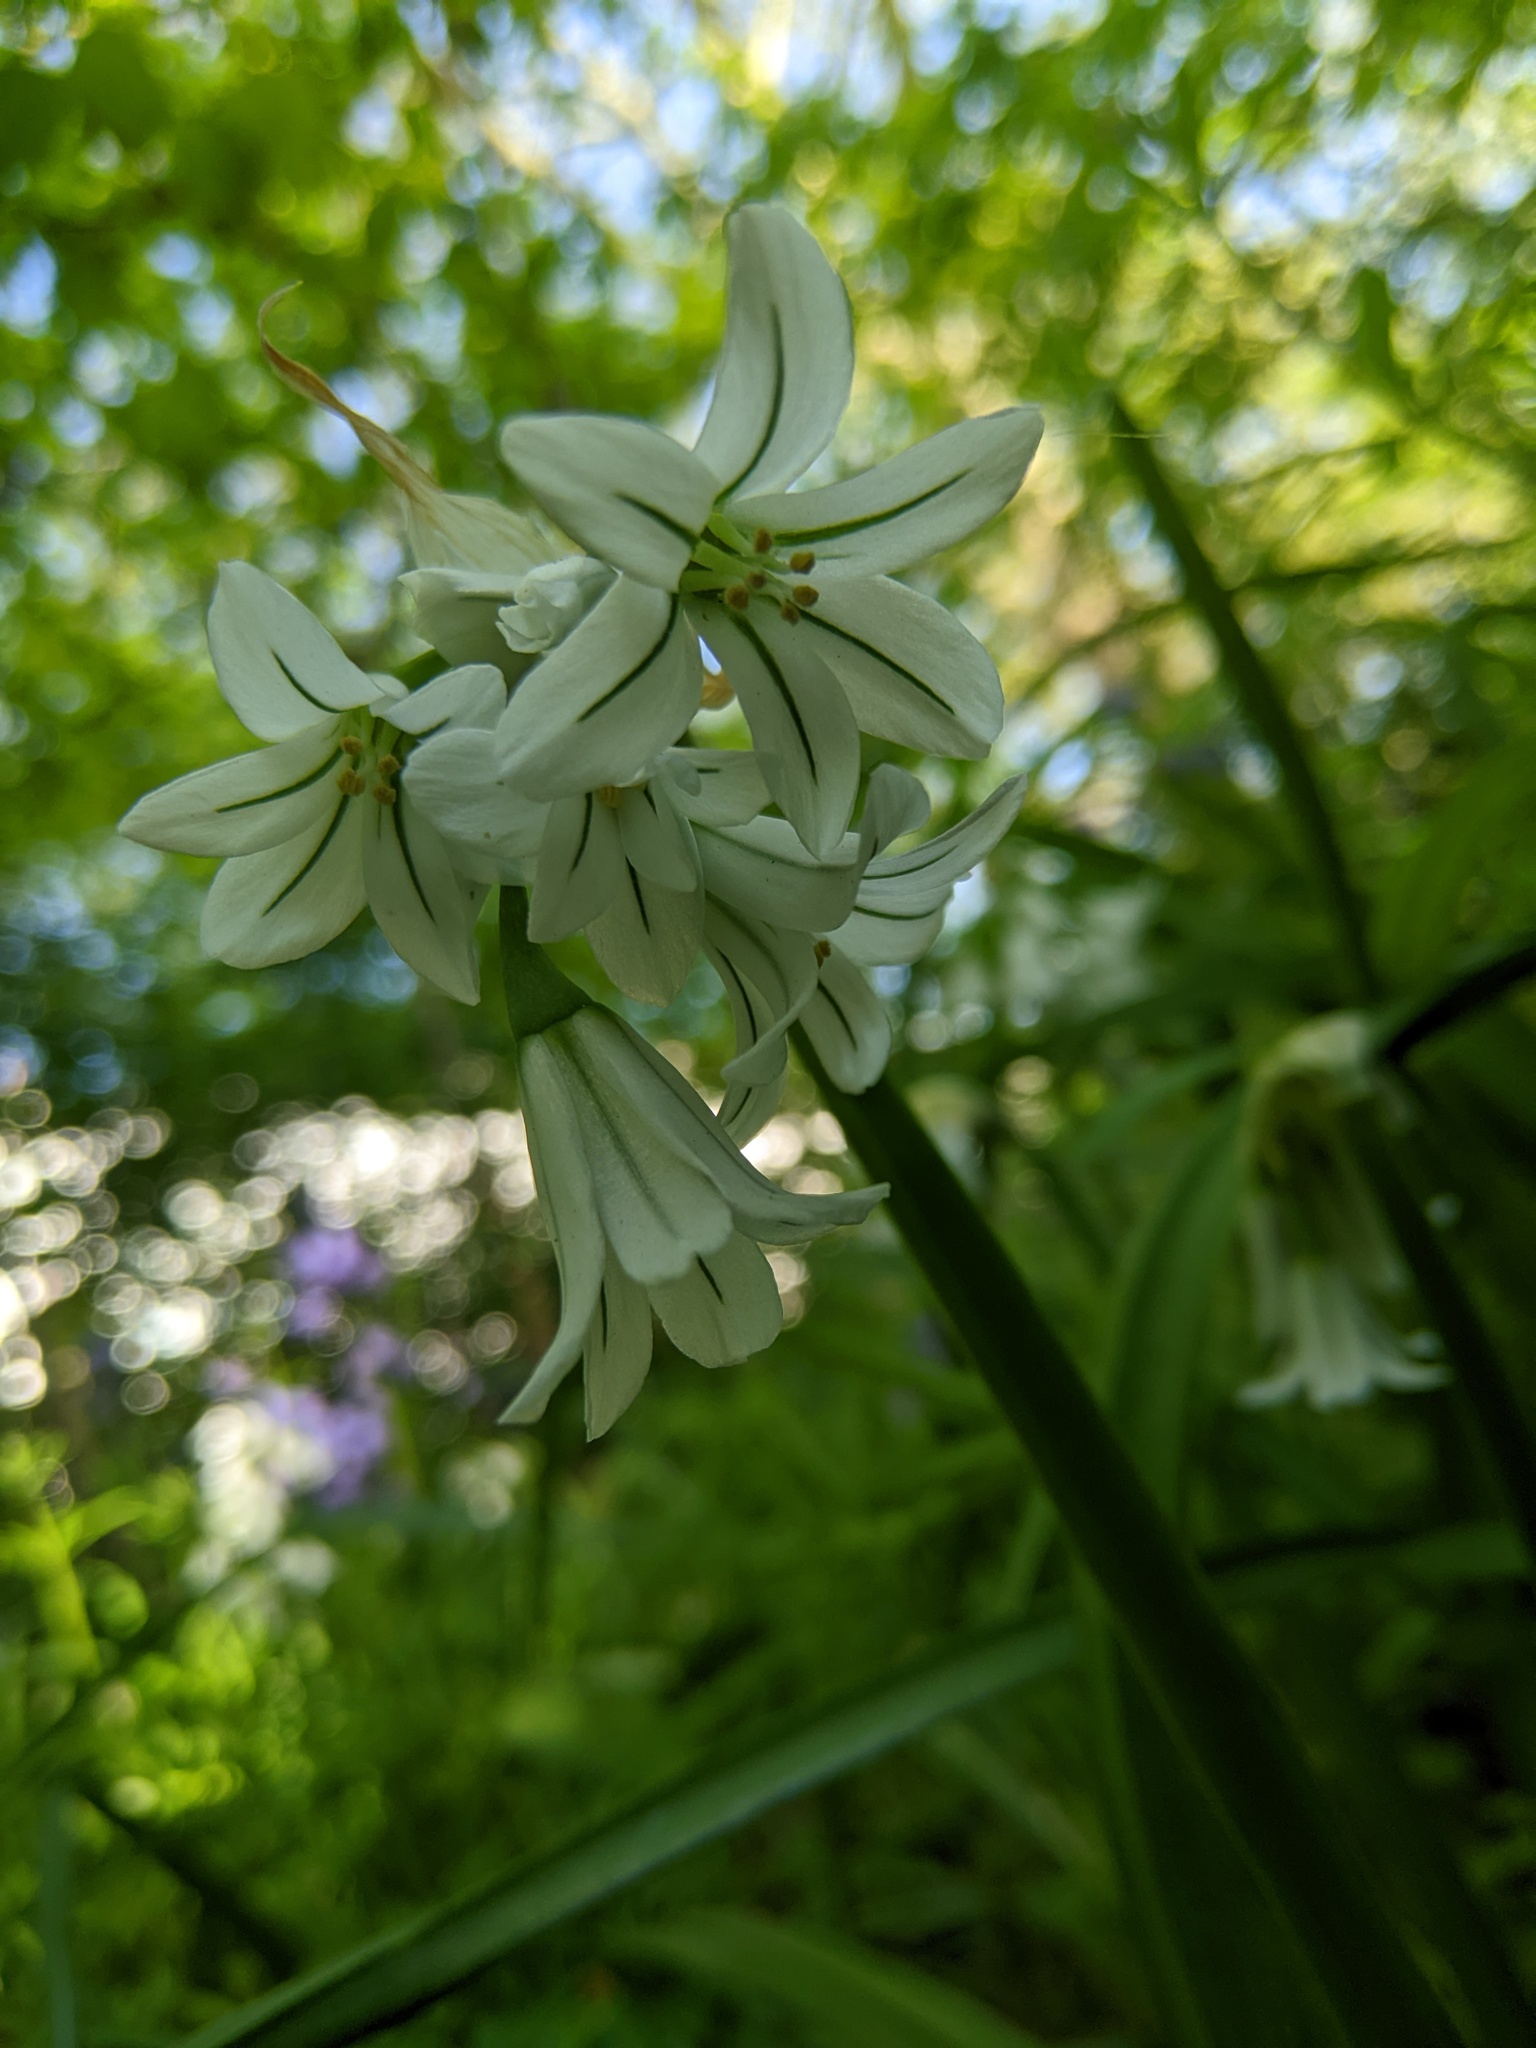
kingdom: Plantae
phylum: Tracheophyta
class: Liliopsida
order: Asparagales
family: Amaryllidaceae
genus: Allium
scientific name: Allium triquetrum
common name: Three-cornered garlic
